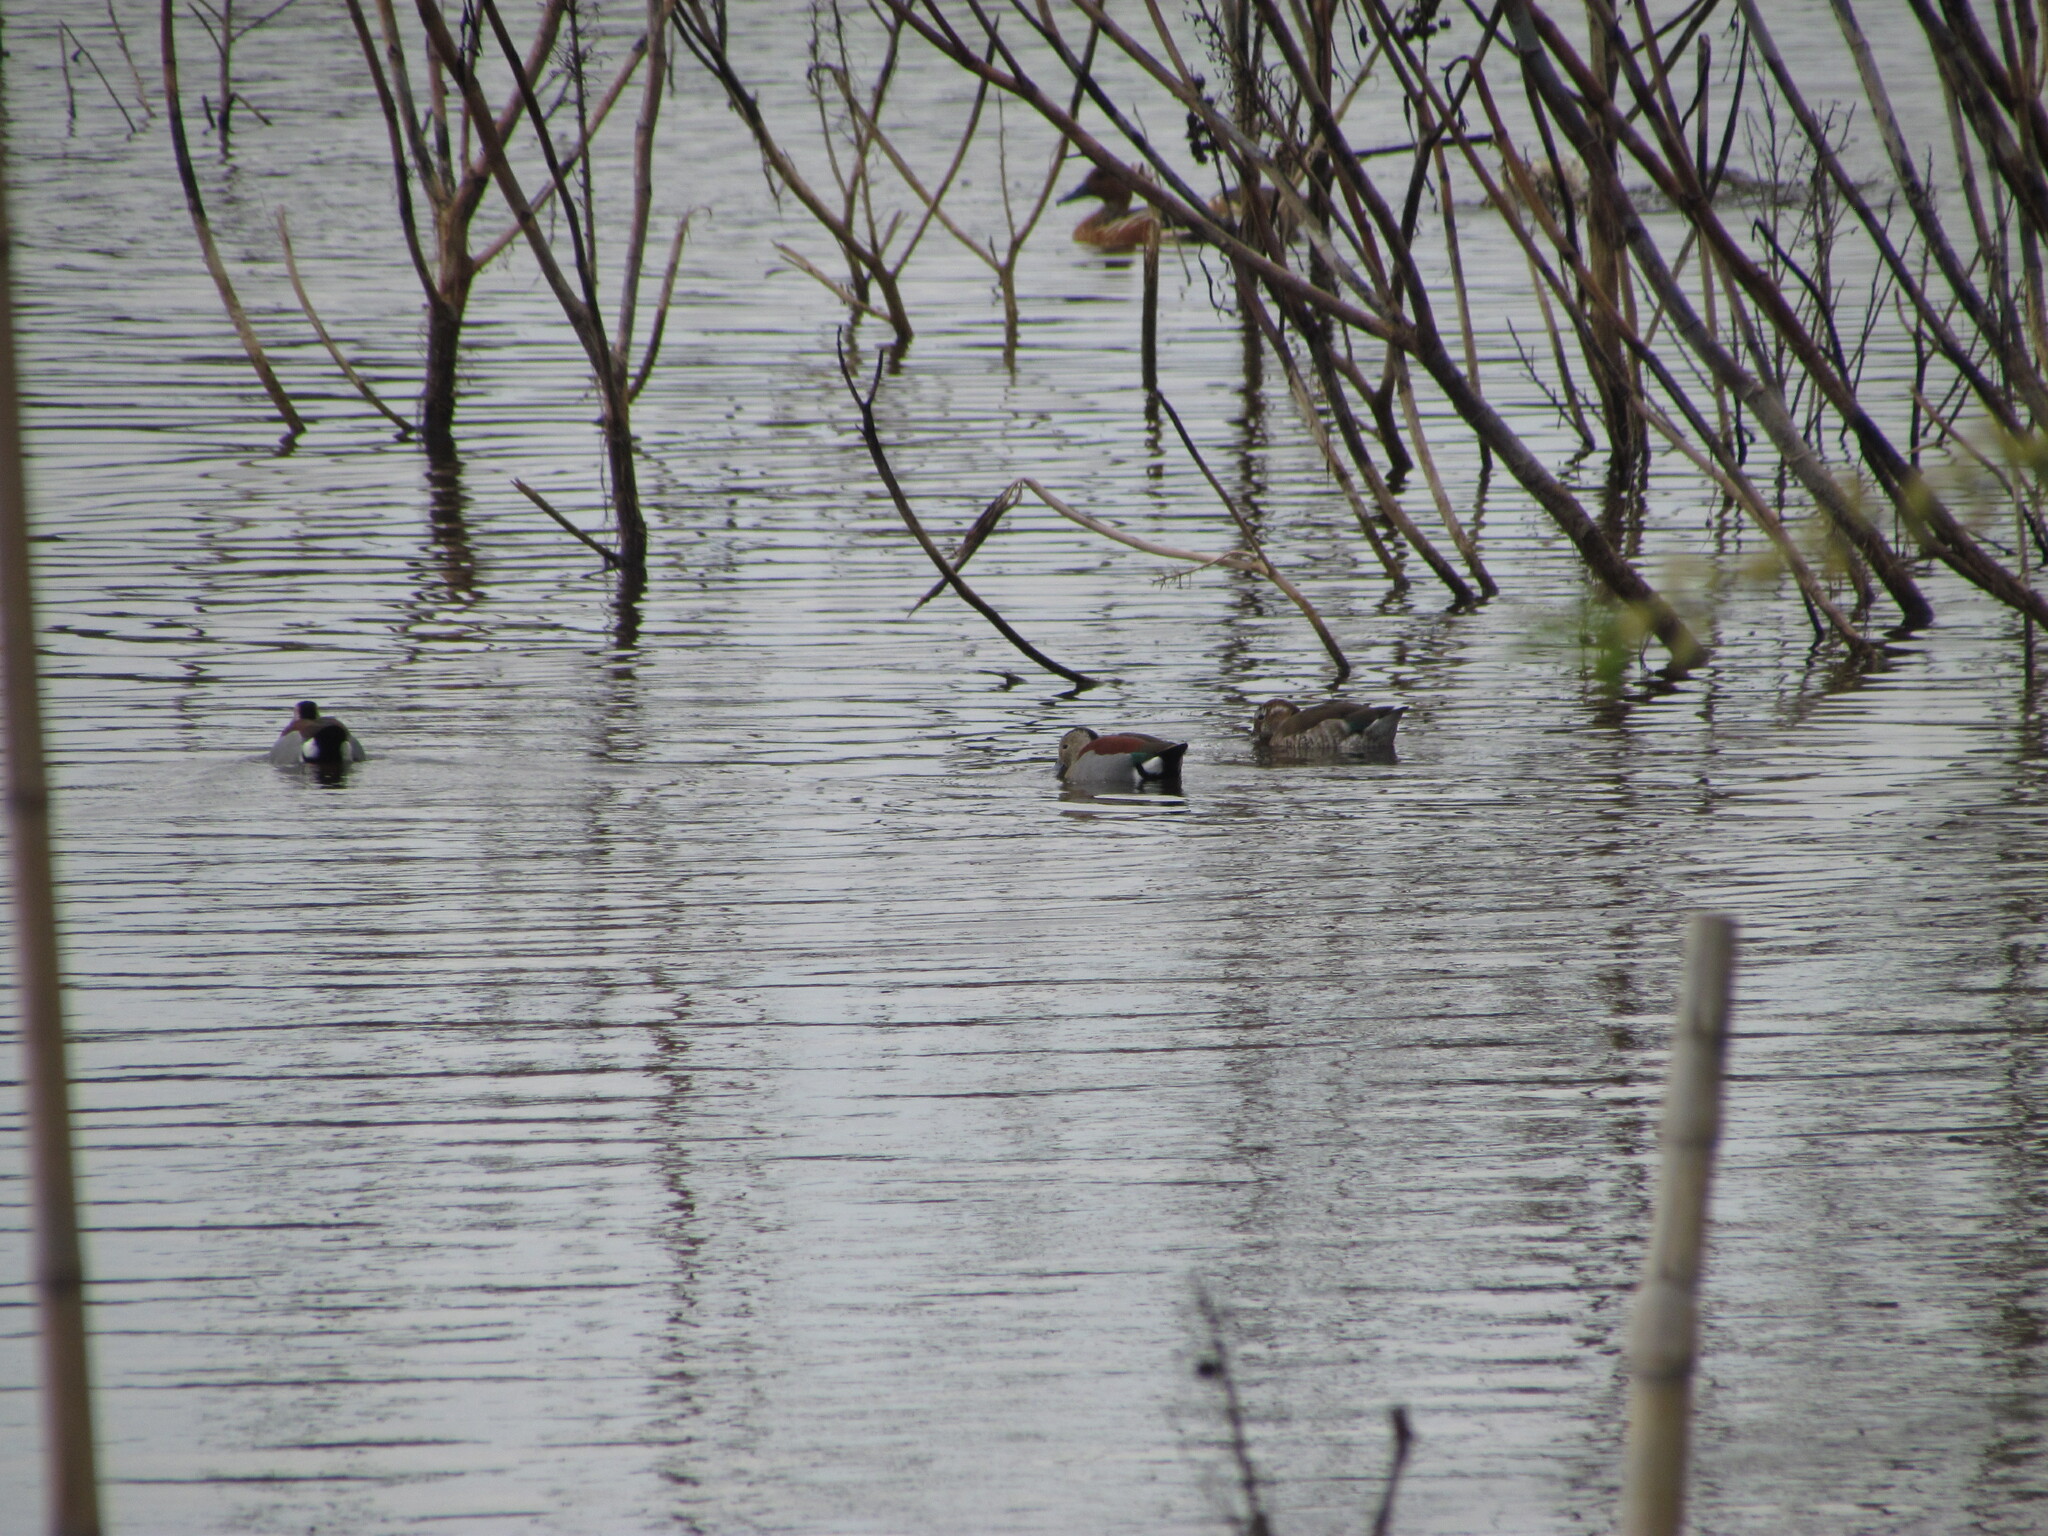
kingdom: Animalia
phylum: Chordata
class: Aves
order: Anseriformes
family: Anatidae
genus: Callonetta
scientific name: Callonetta leucophrys
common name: Ringed teal
